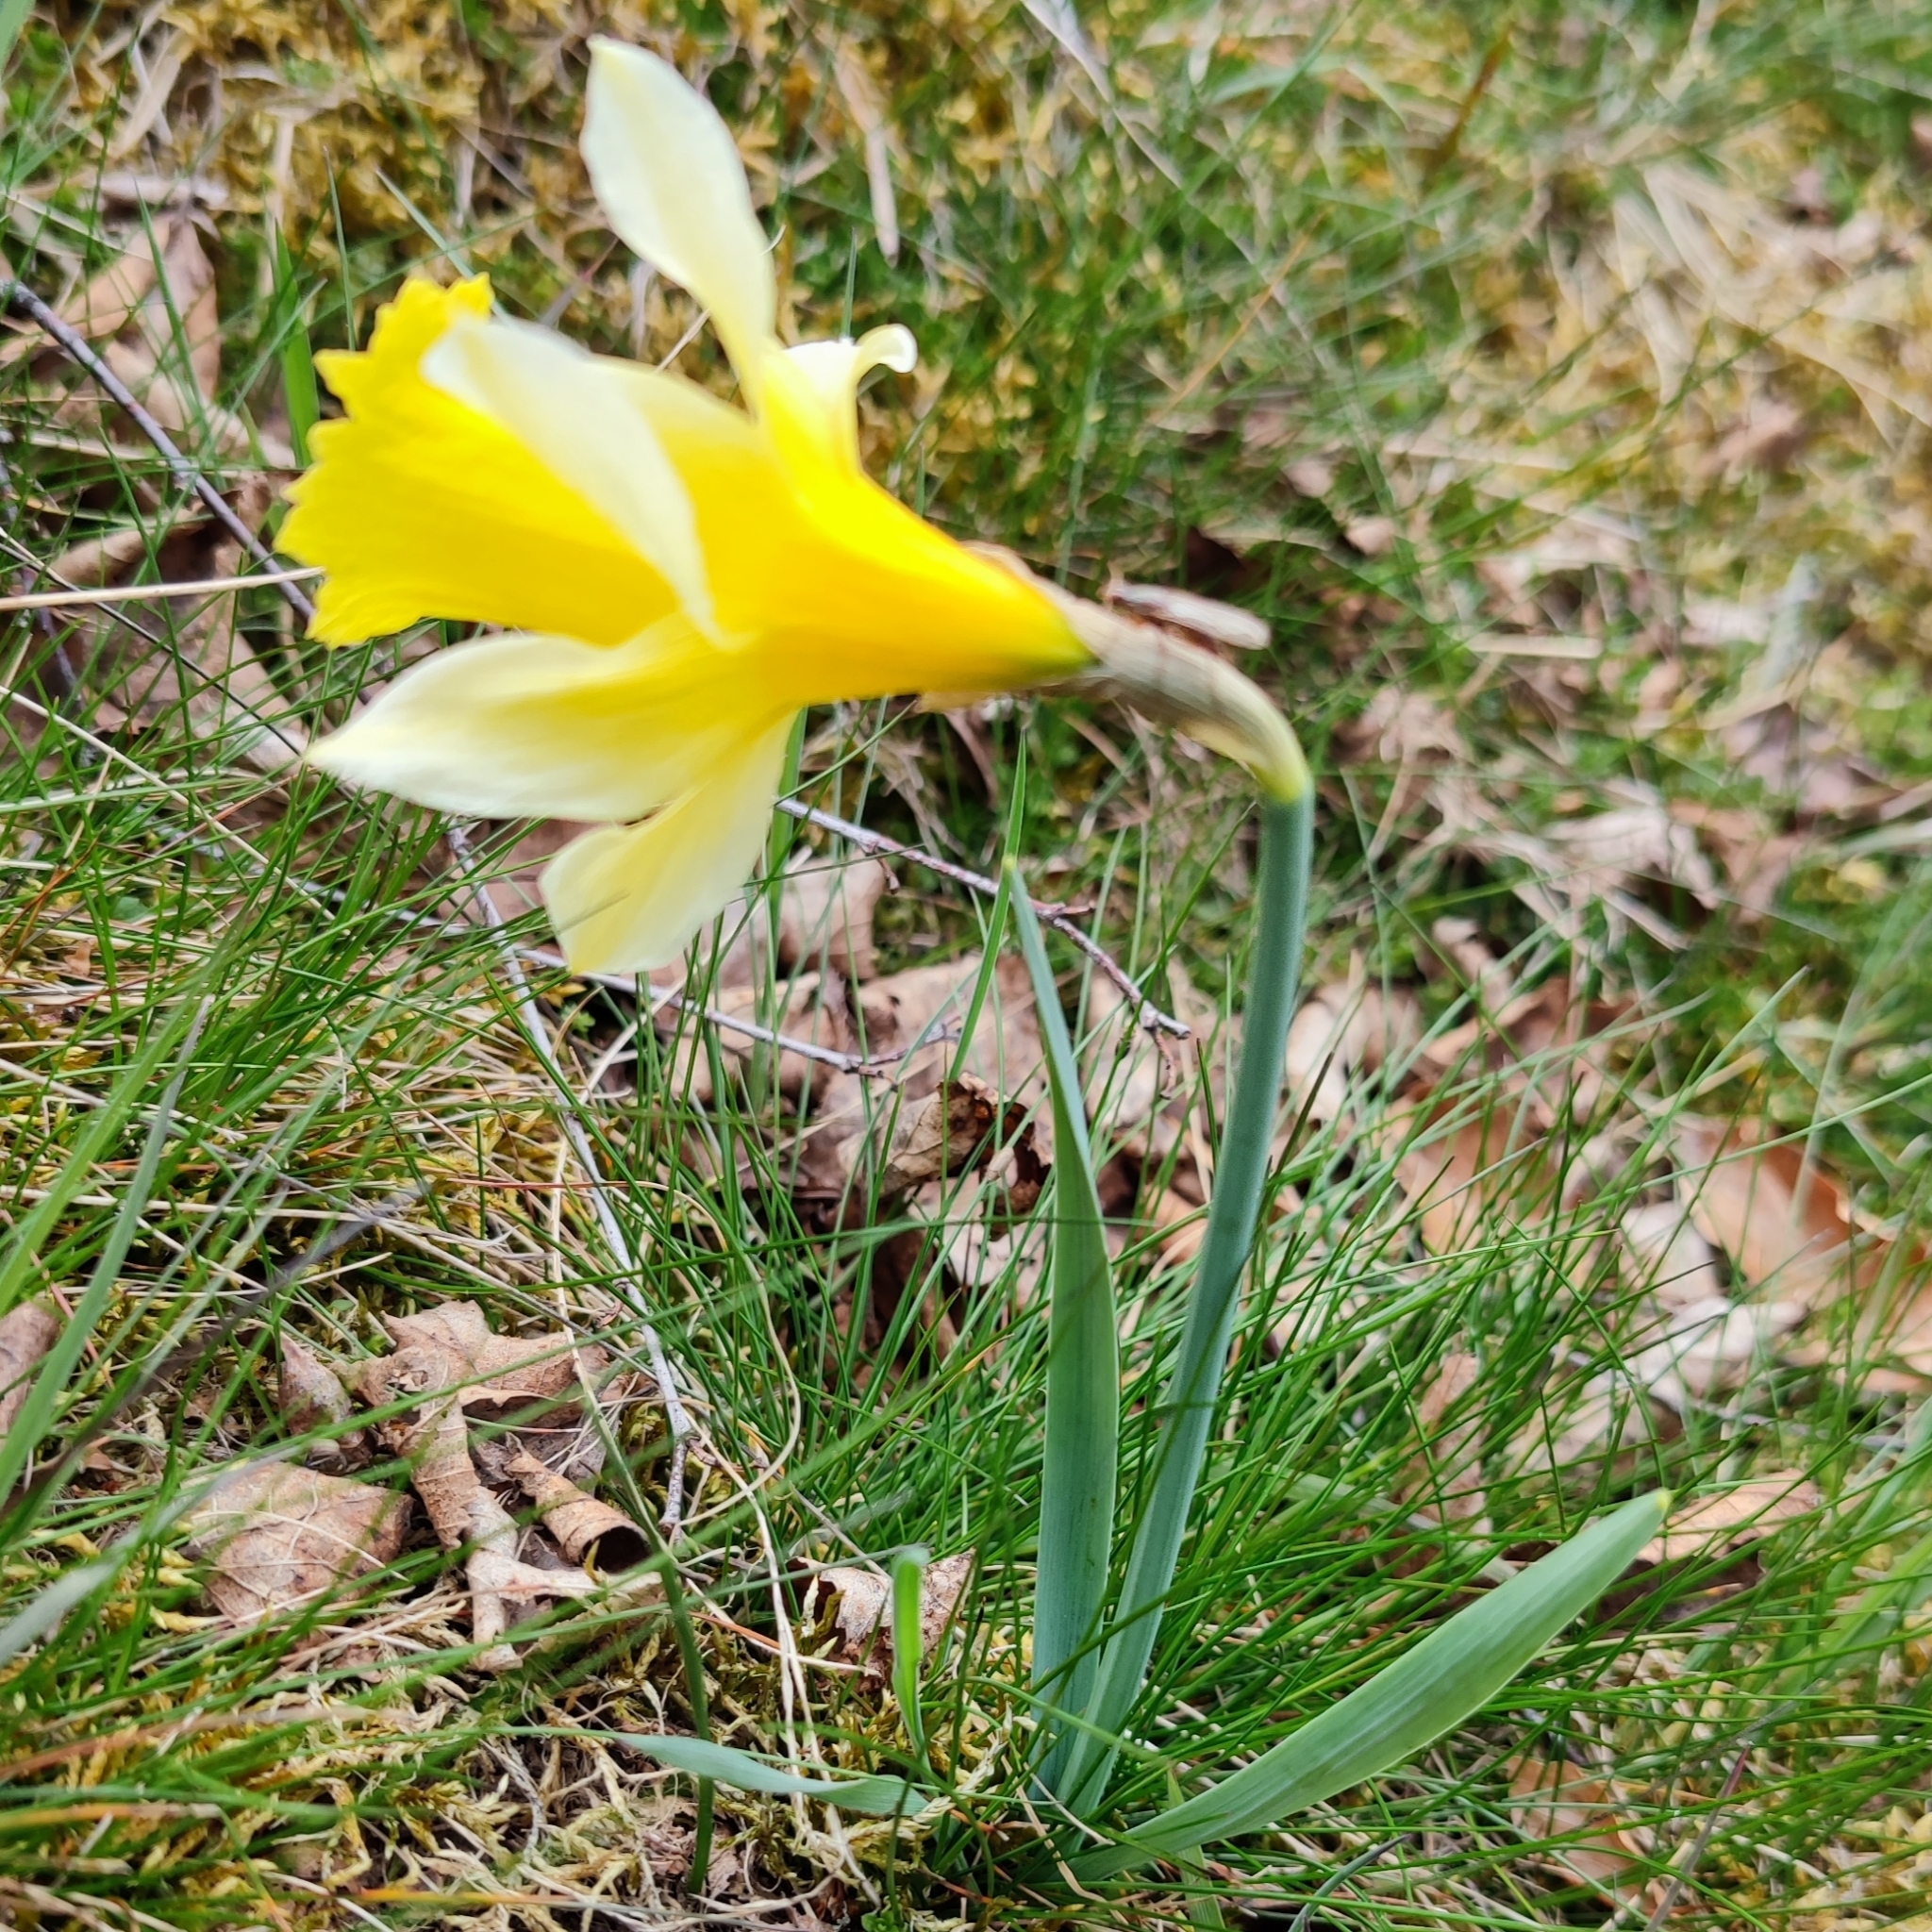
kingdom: Plantae
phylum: Tracheophyta
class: Liliopsida
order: Asparagales
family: Amaryllidaceae
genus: Narcissus
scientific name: Narcissus pseudonarcissus
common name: Daffodil
